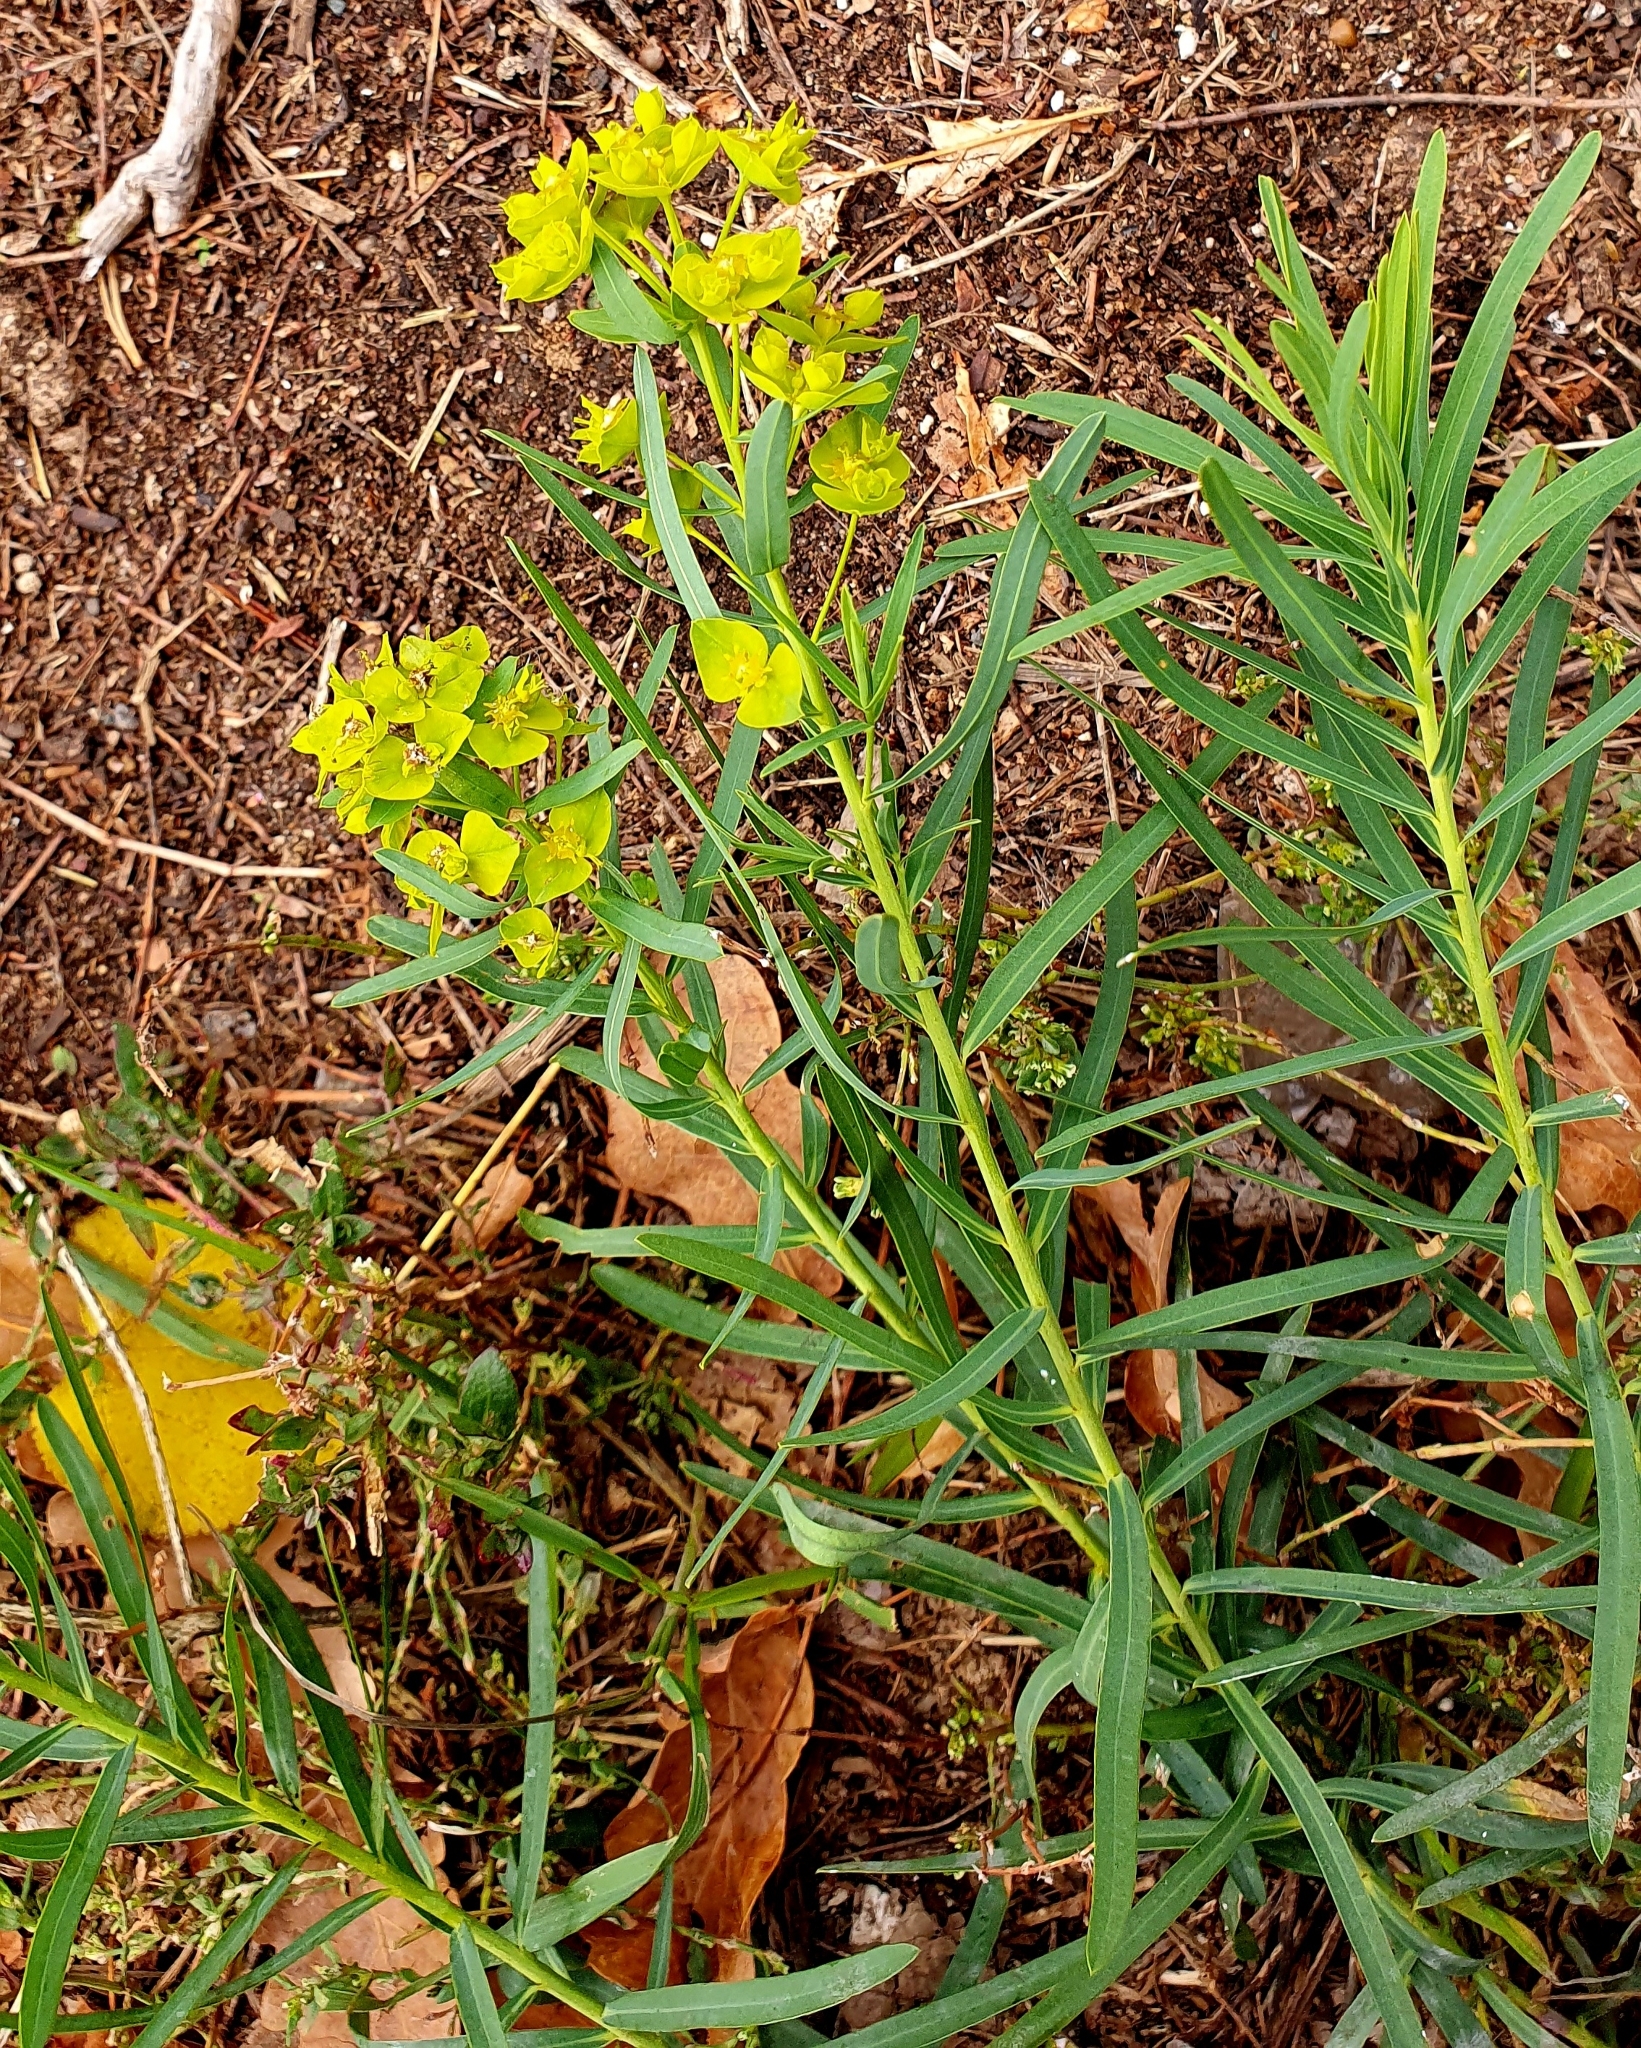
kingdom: Plantae
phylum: Tracheophyta
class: Magnoliopsida
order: Malpighiales
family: Euphorbiaceae
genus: Euphorbia
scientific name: Euphorbia virgata
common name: Leafy spurge
